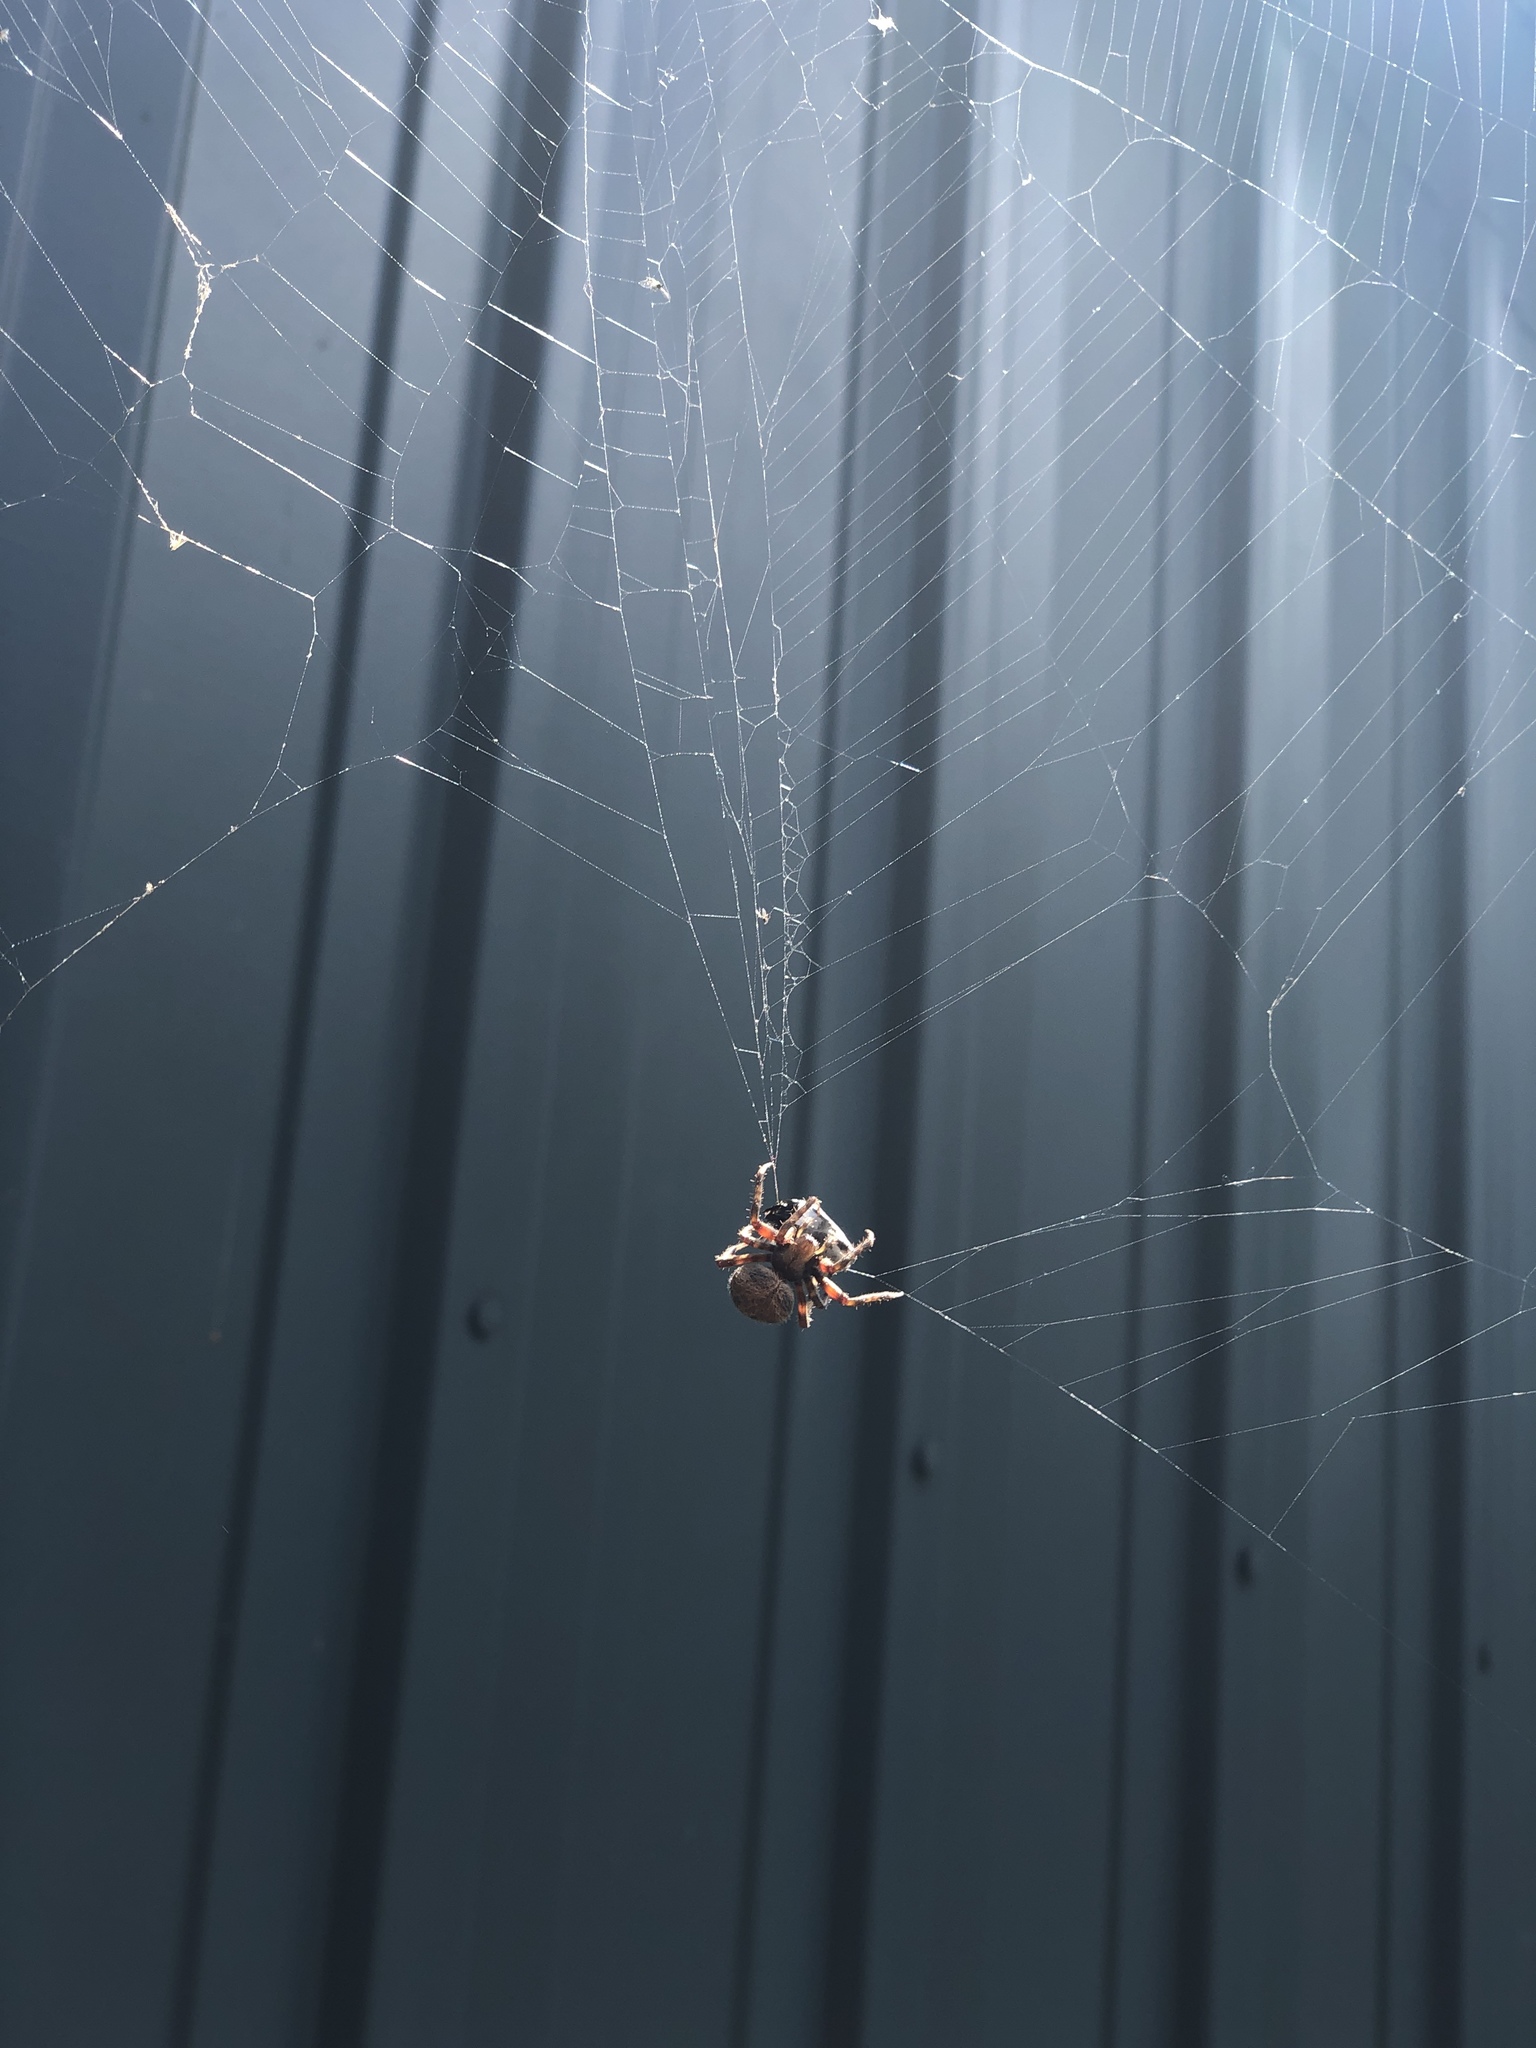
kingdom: Animalia
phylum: Arthropoda
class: Arachnida
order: Araneae
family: Araneidae
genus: Neoscona
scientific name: Neoscona crucifera
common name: Spotted orbweaver
